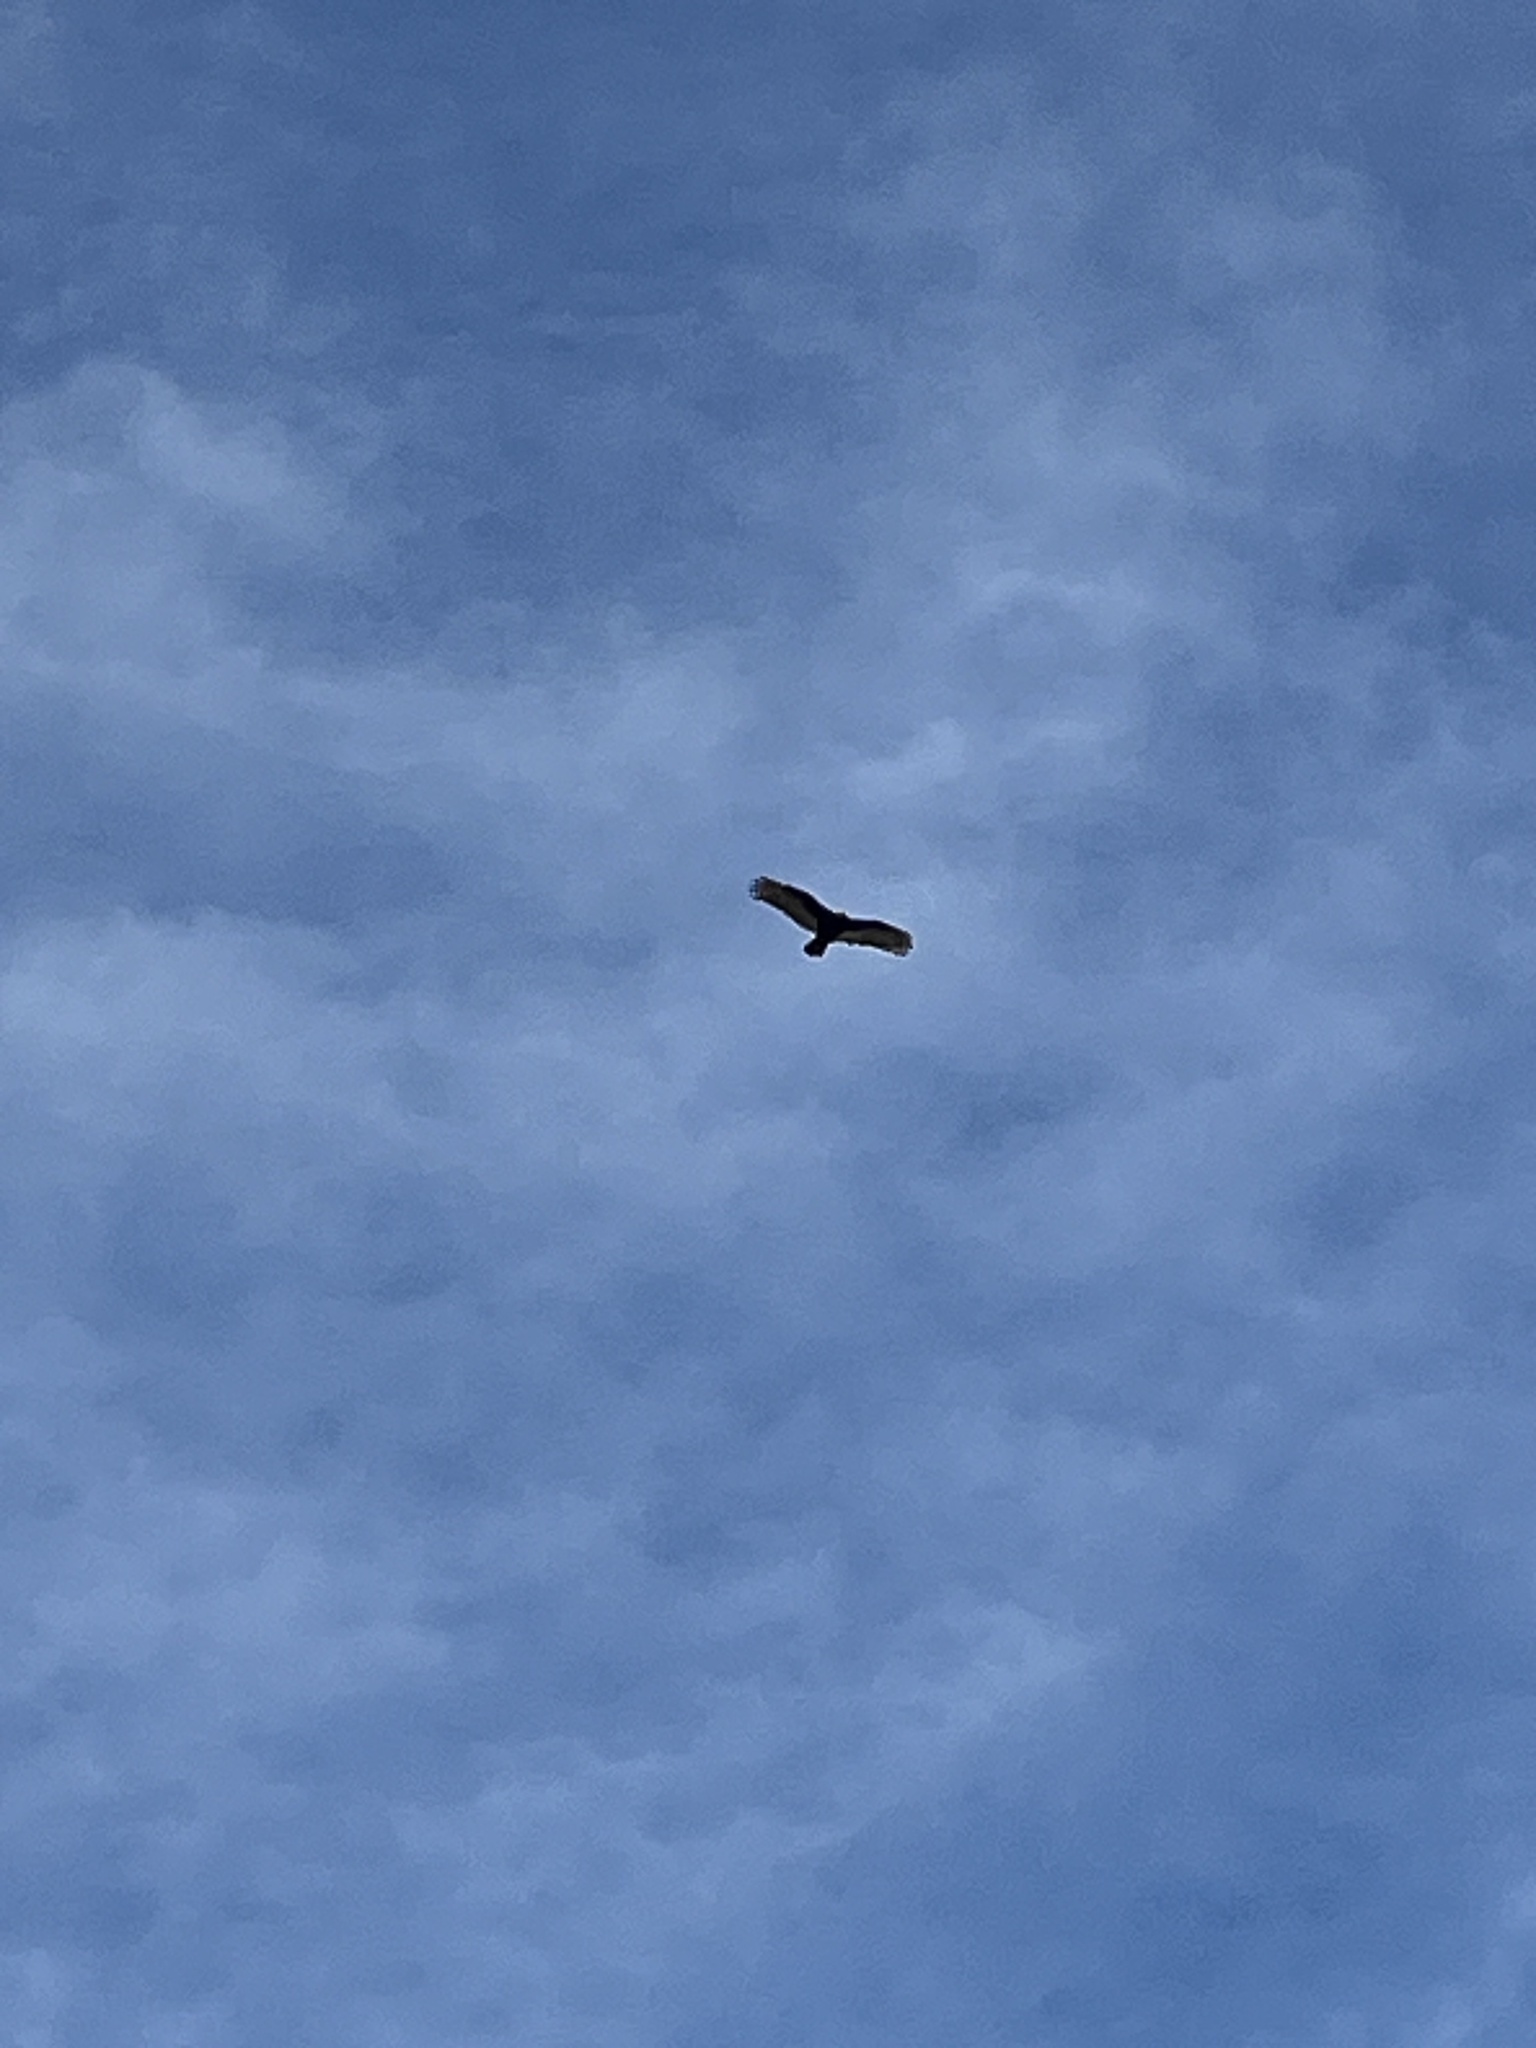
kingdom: Animalia
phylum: Chordata
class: Aves
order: Accipitriformes
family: Cathartidae
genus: Cathartes
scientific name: Cathartes aura
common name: Turkey vulture
